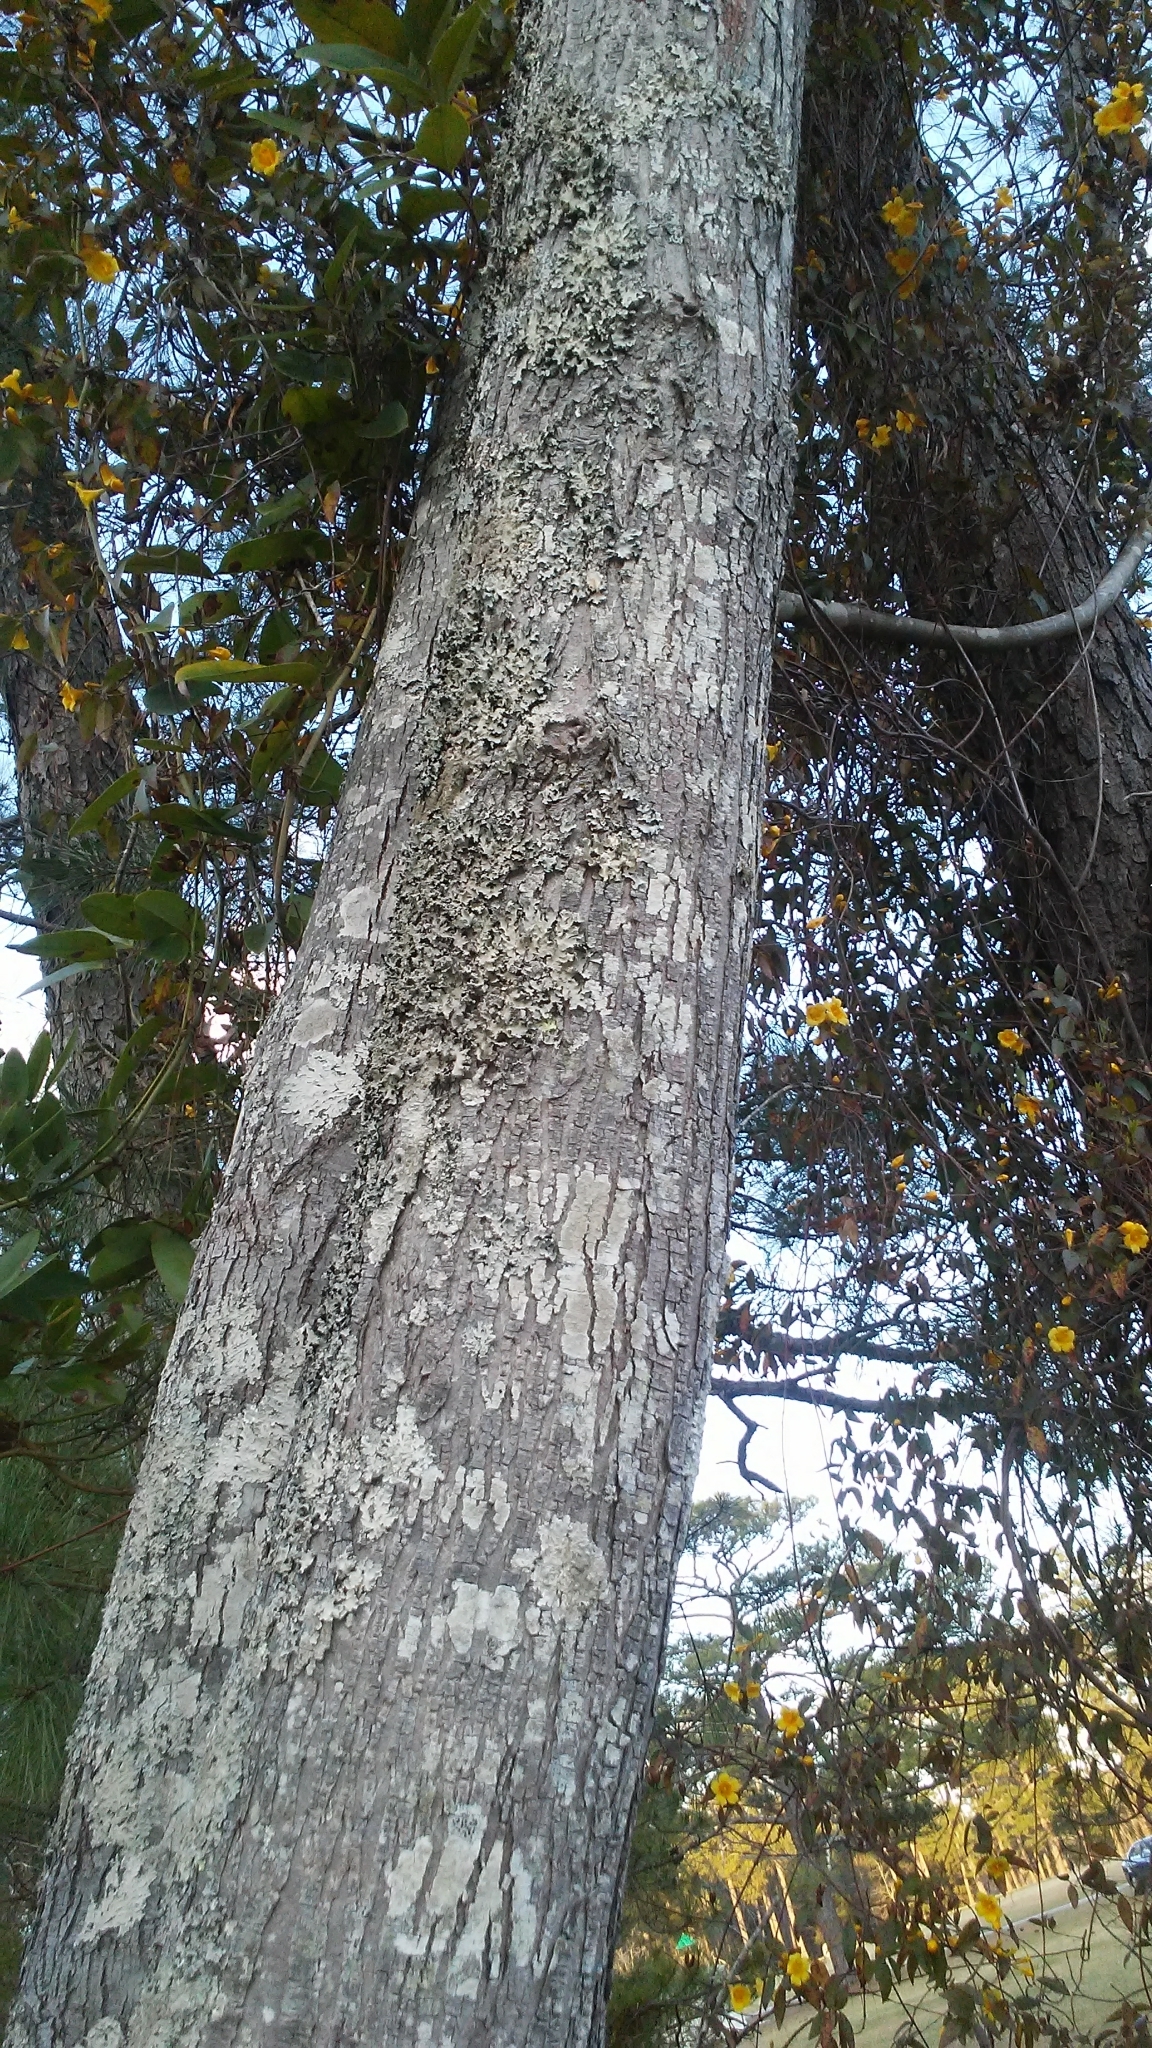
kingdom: Plantae
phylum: Tracheophyta
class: Magnoliopsida
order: Gentianales
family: Gelsemiaceae
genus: Gelsemium
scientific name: Gelsemium sempervirens
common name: Carolina-jasmine
